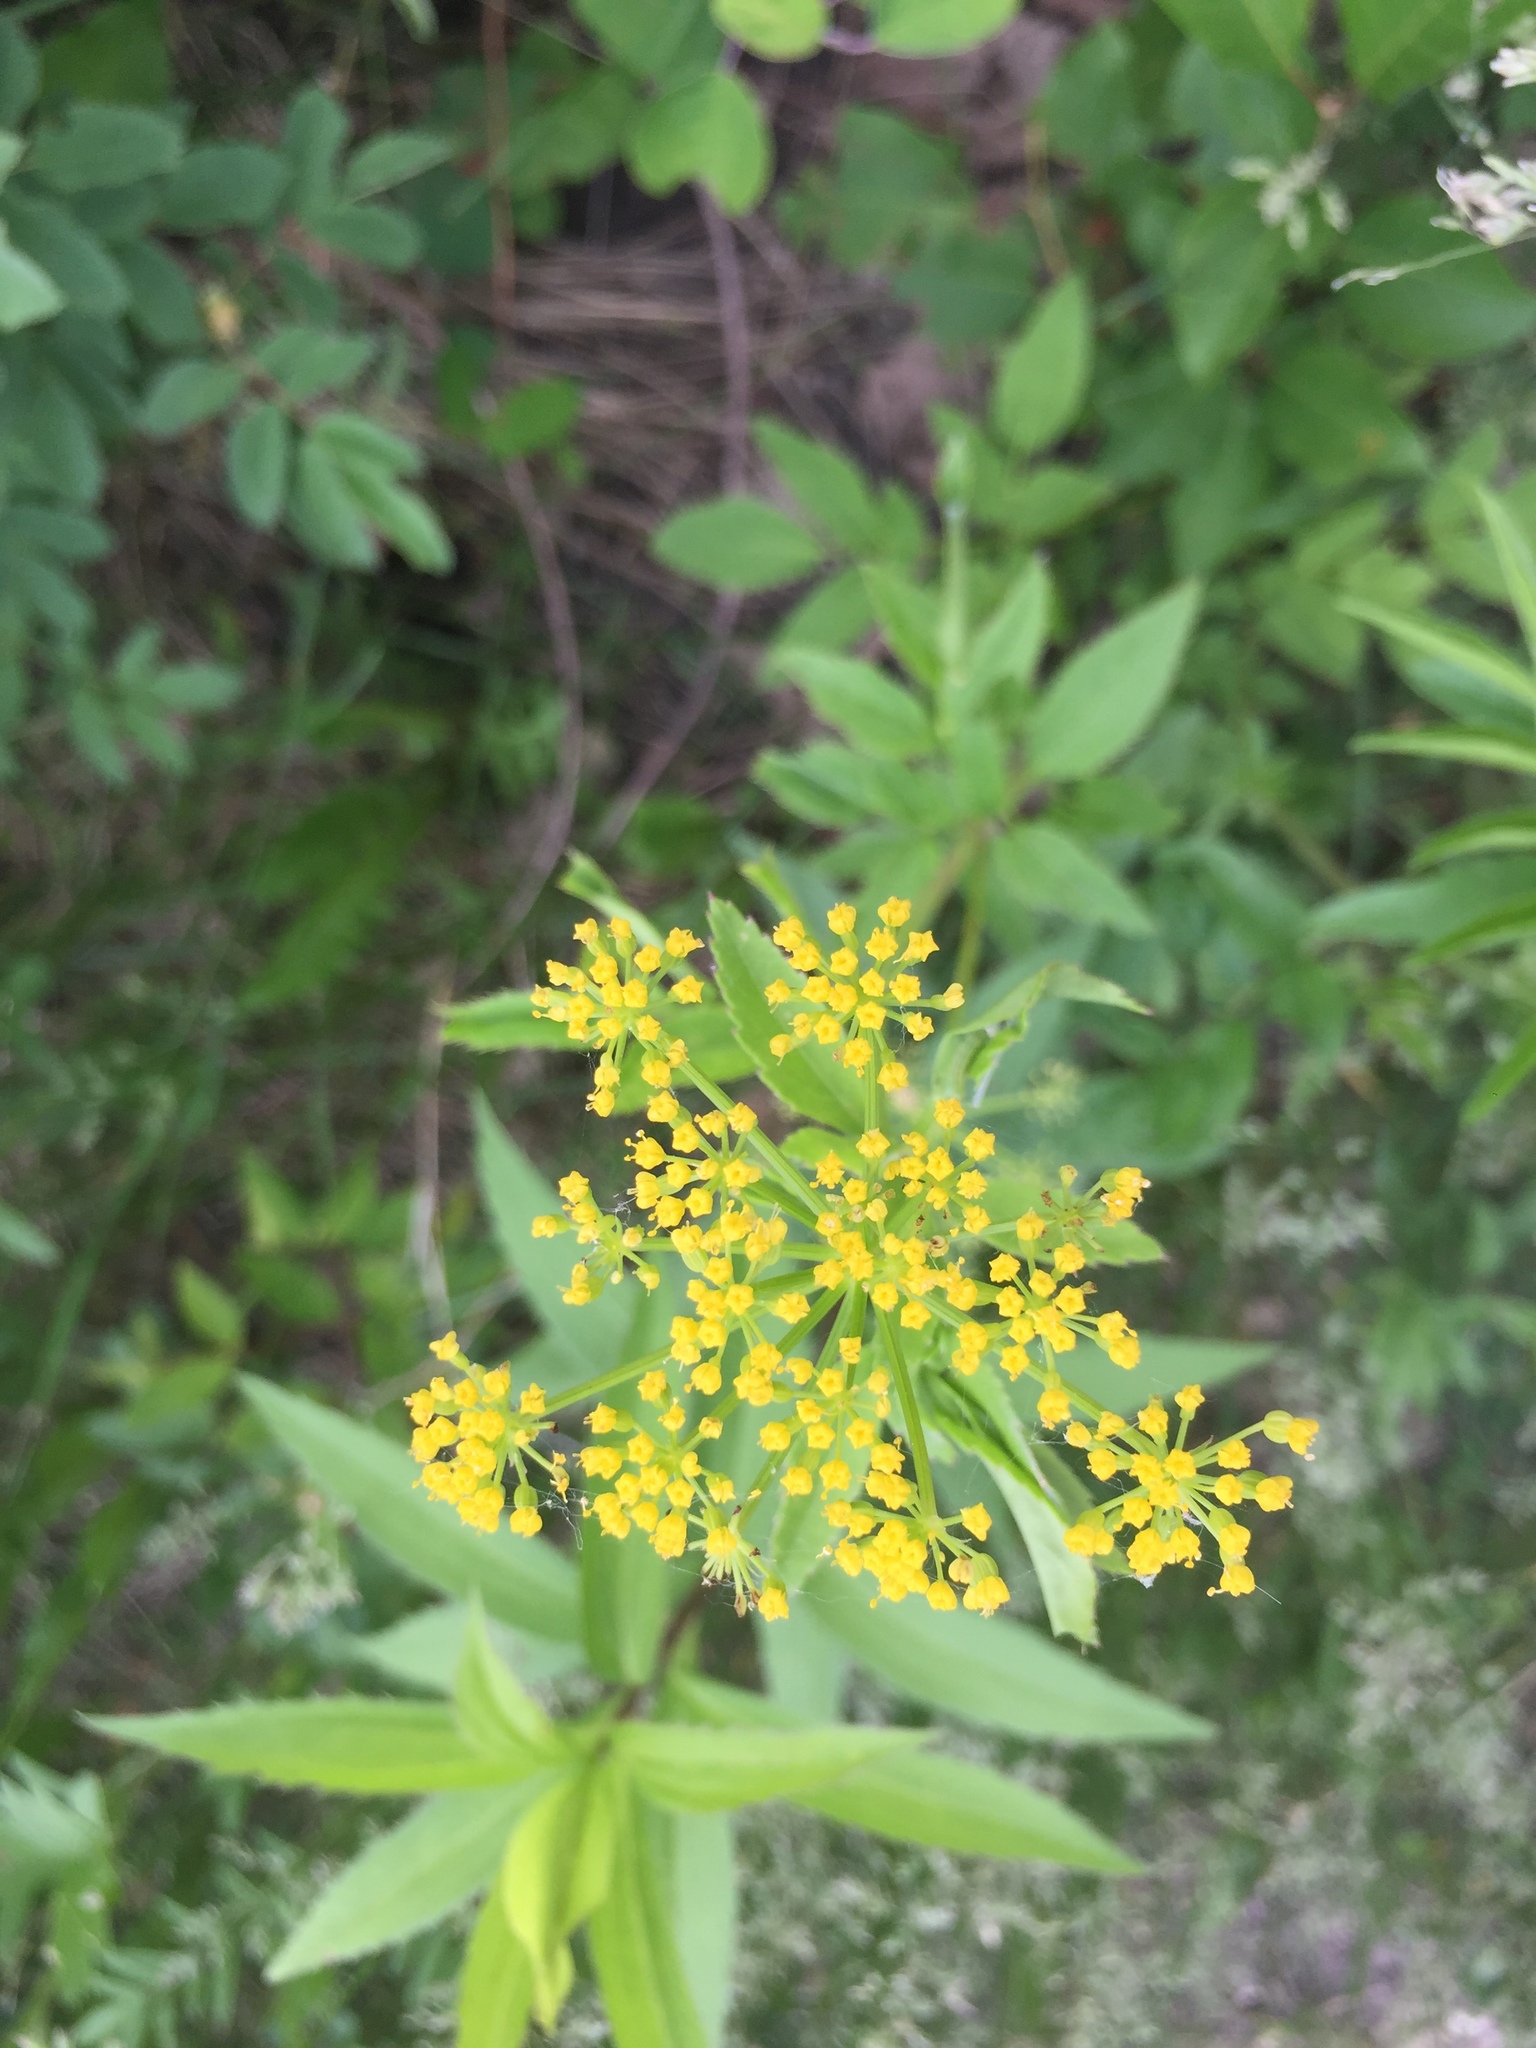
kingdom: Plantae
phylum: Tracheophyta
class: Magnoliopsida
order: Apiales
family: Apiaceae
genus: Zizia
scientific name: Zizia aurea
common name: Golden alexanders
